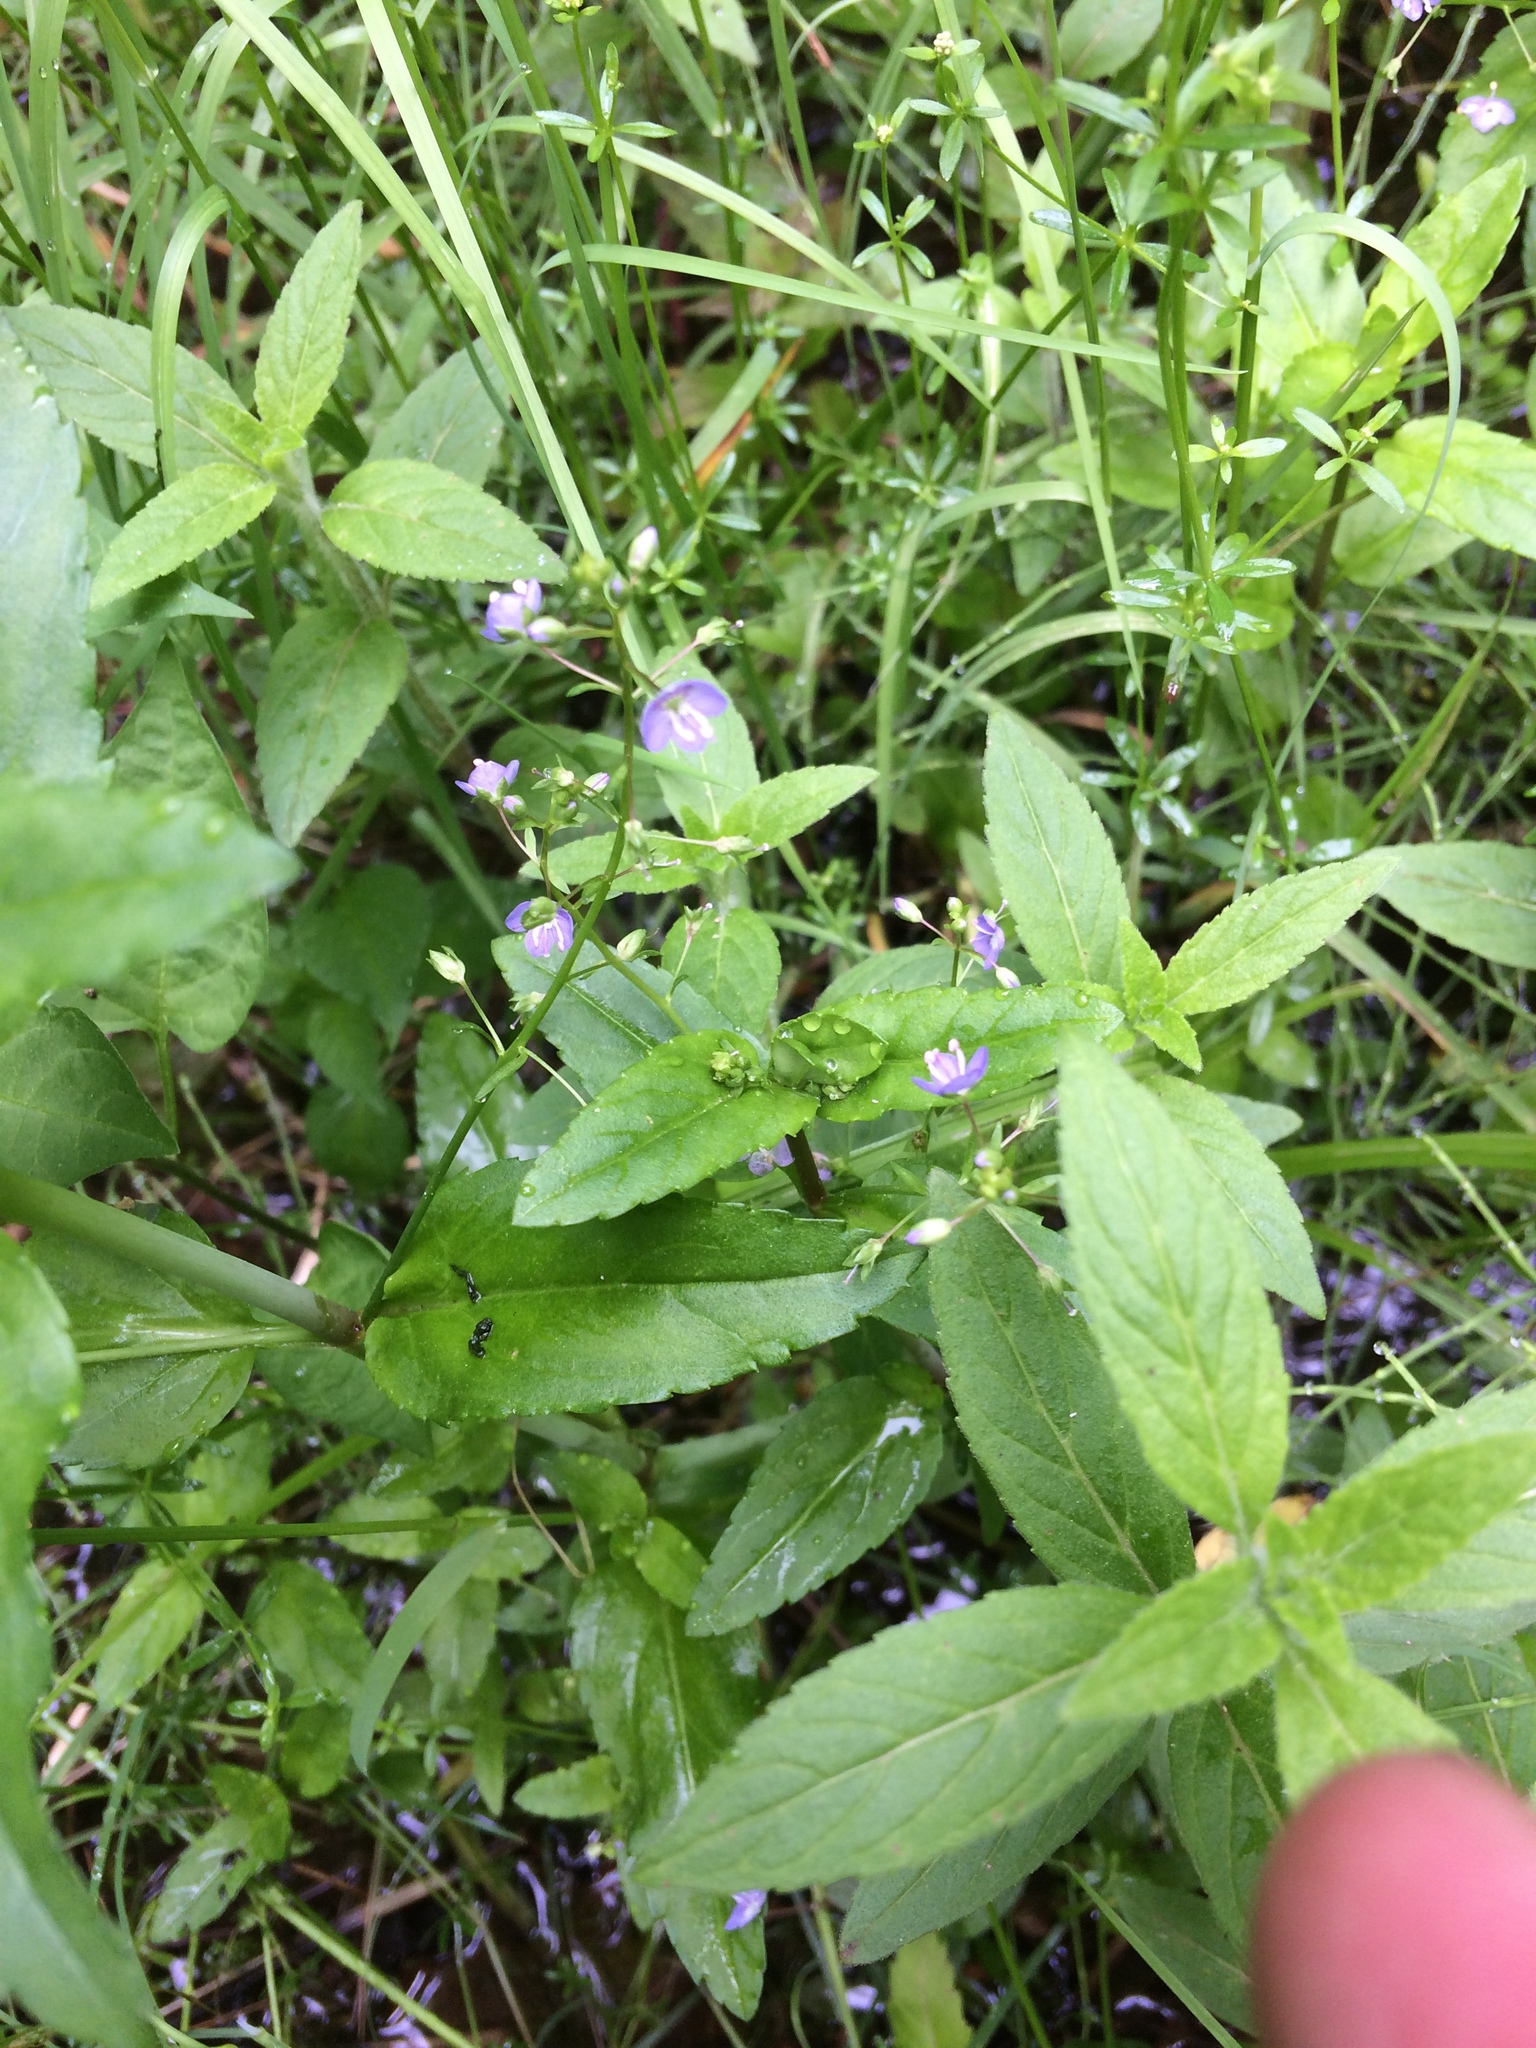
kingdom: Plantae
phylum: Tracheophyta
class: Magnoliopsida
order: Lamiales
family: Plantaginaceae
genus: Veronica
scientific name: Veronica americana
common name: American brooklime
